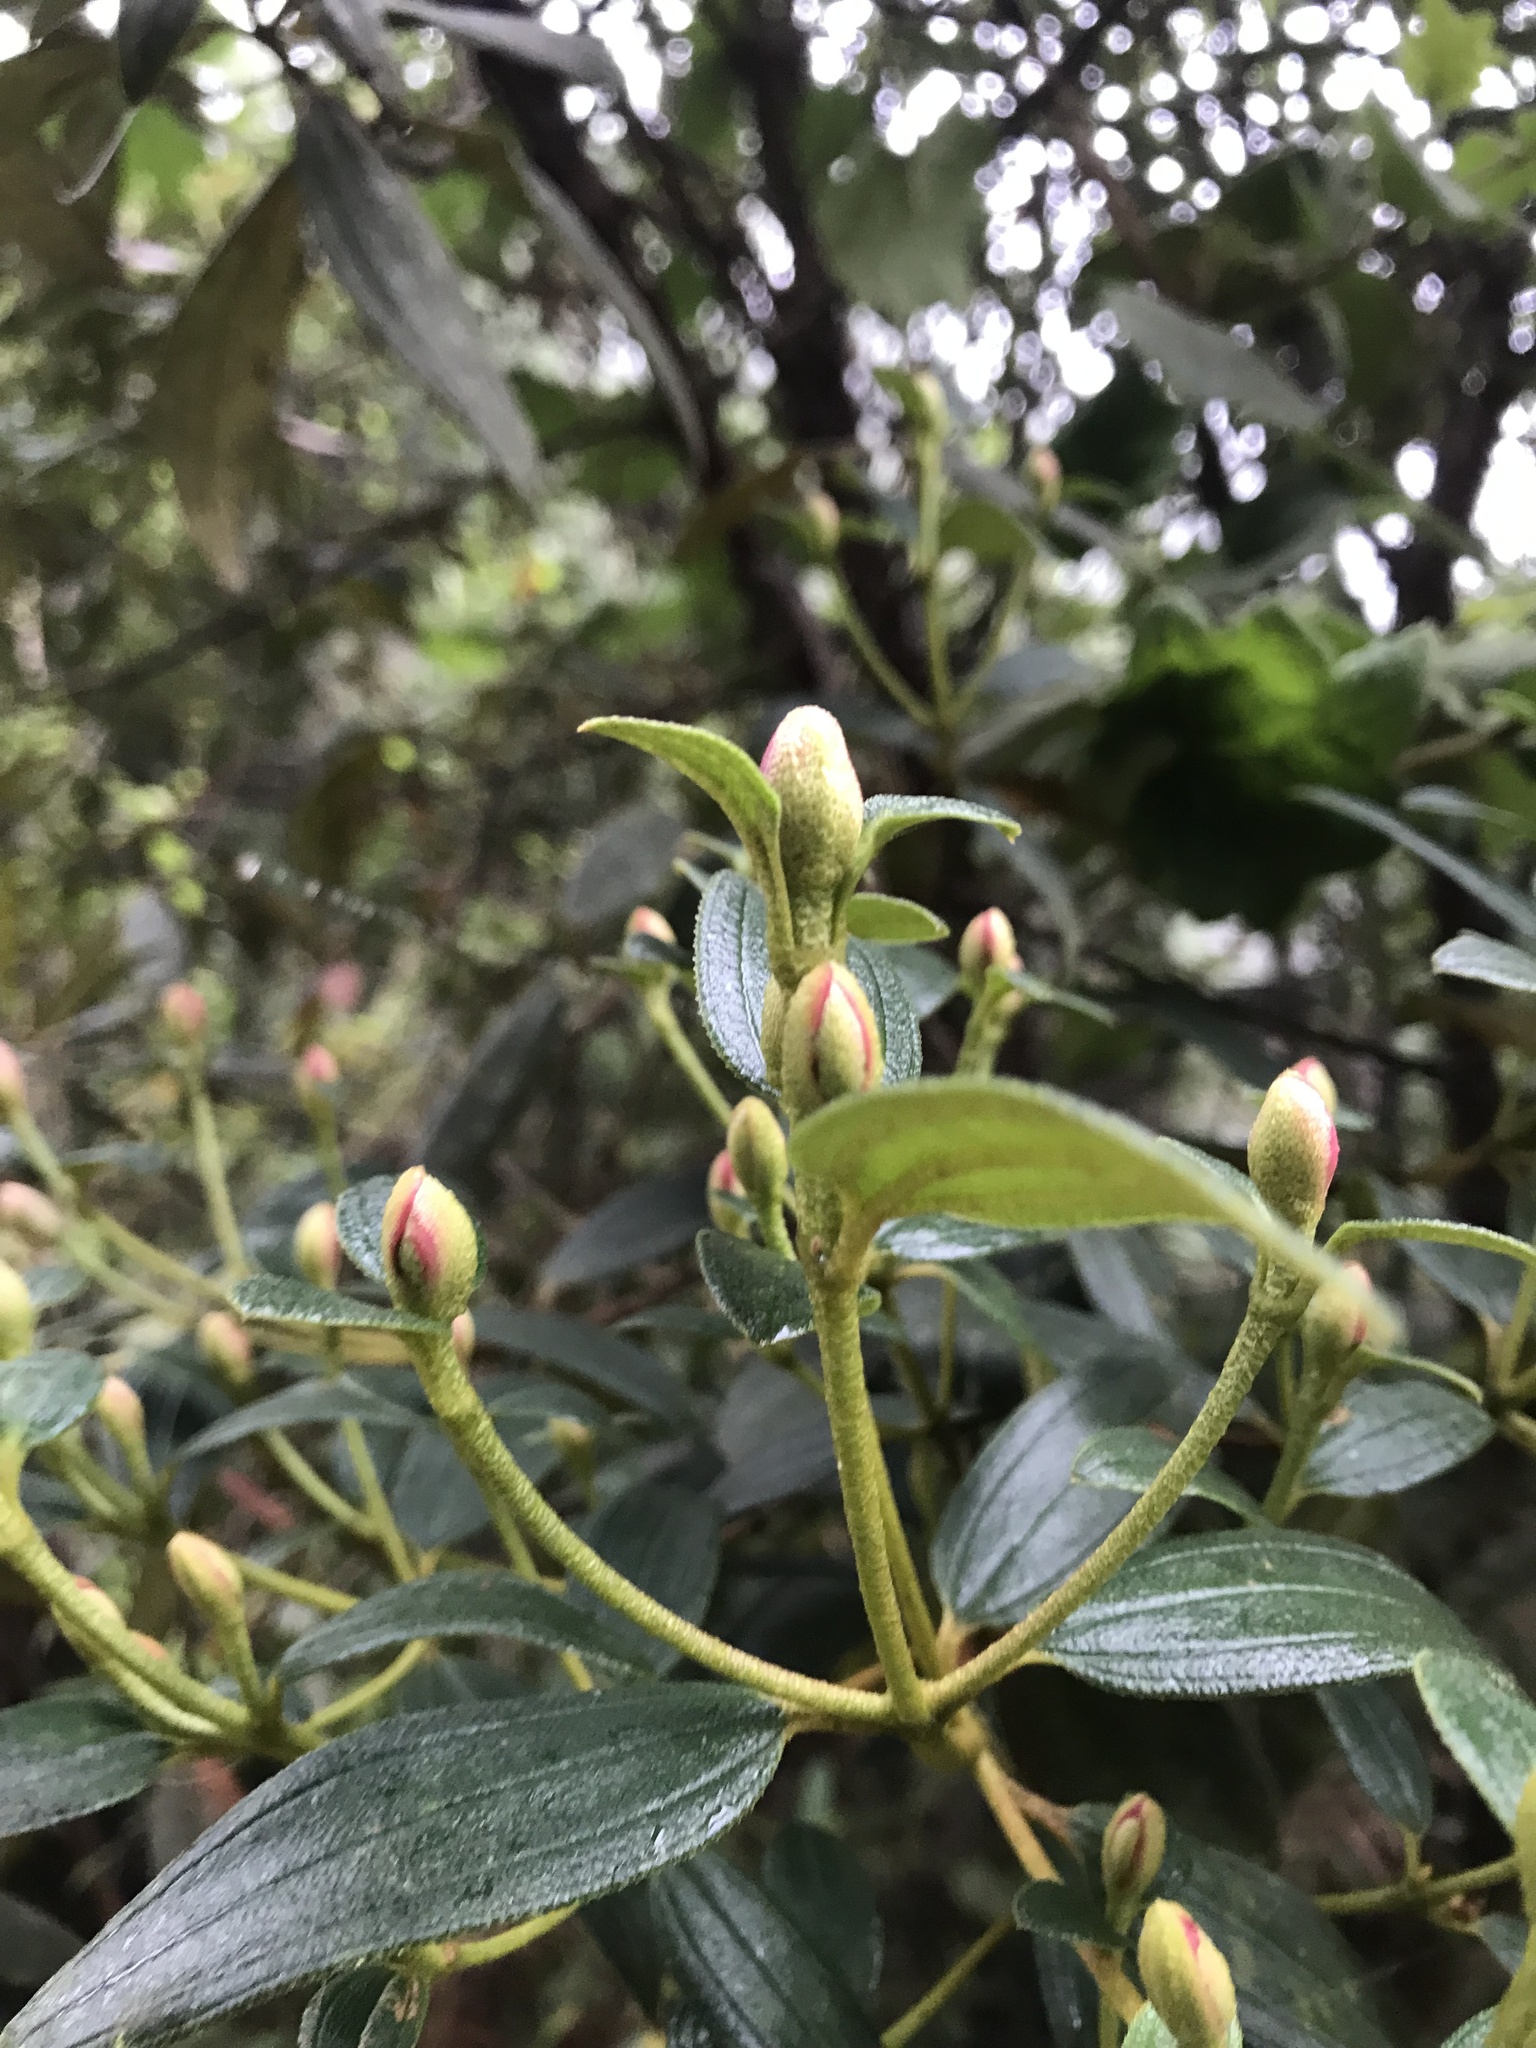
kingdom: Plantae
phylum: Tracheophyta
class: Magnoliopsida
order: Myrtales
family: Melastomataceae
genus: Andesanthus
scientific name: Andesanthus lepidotus
